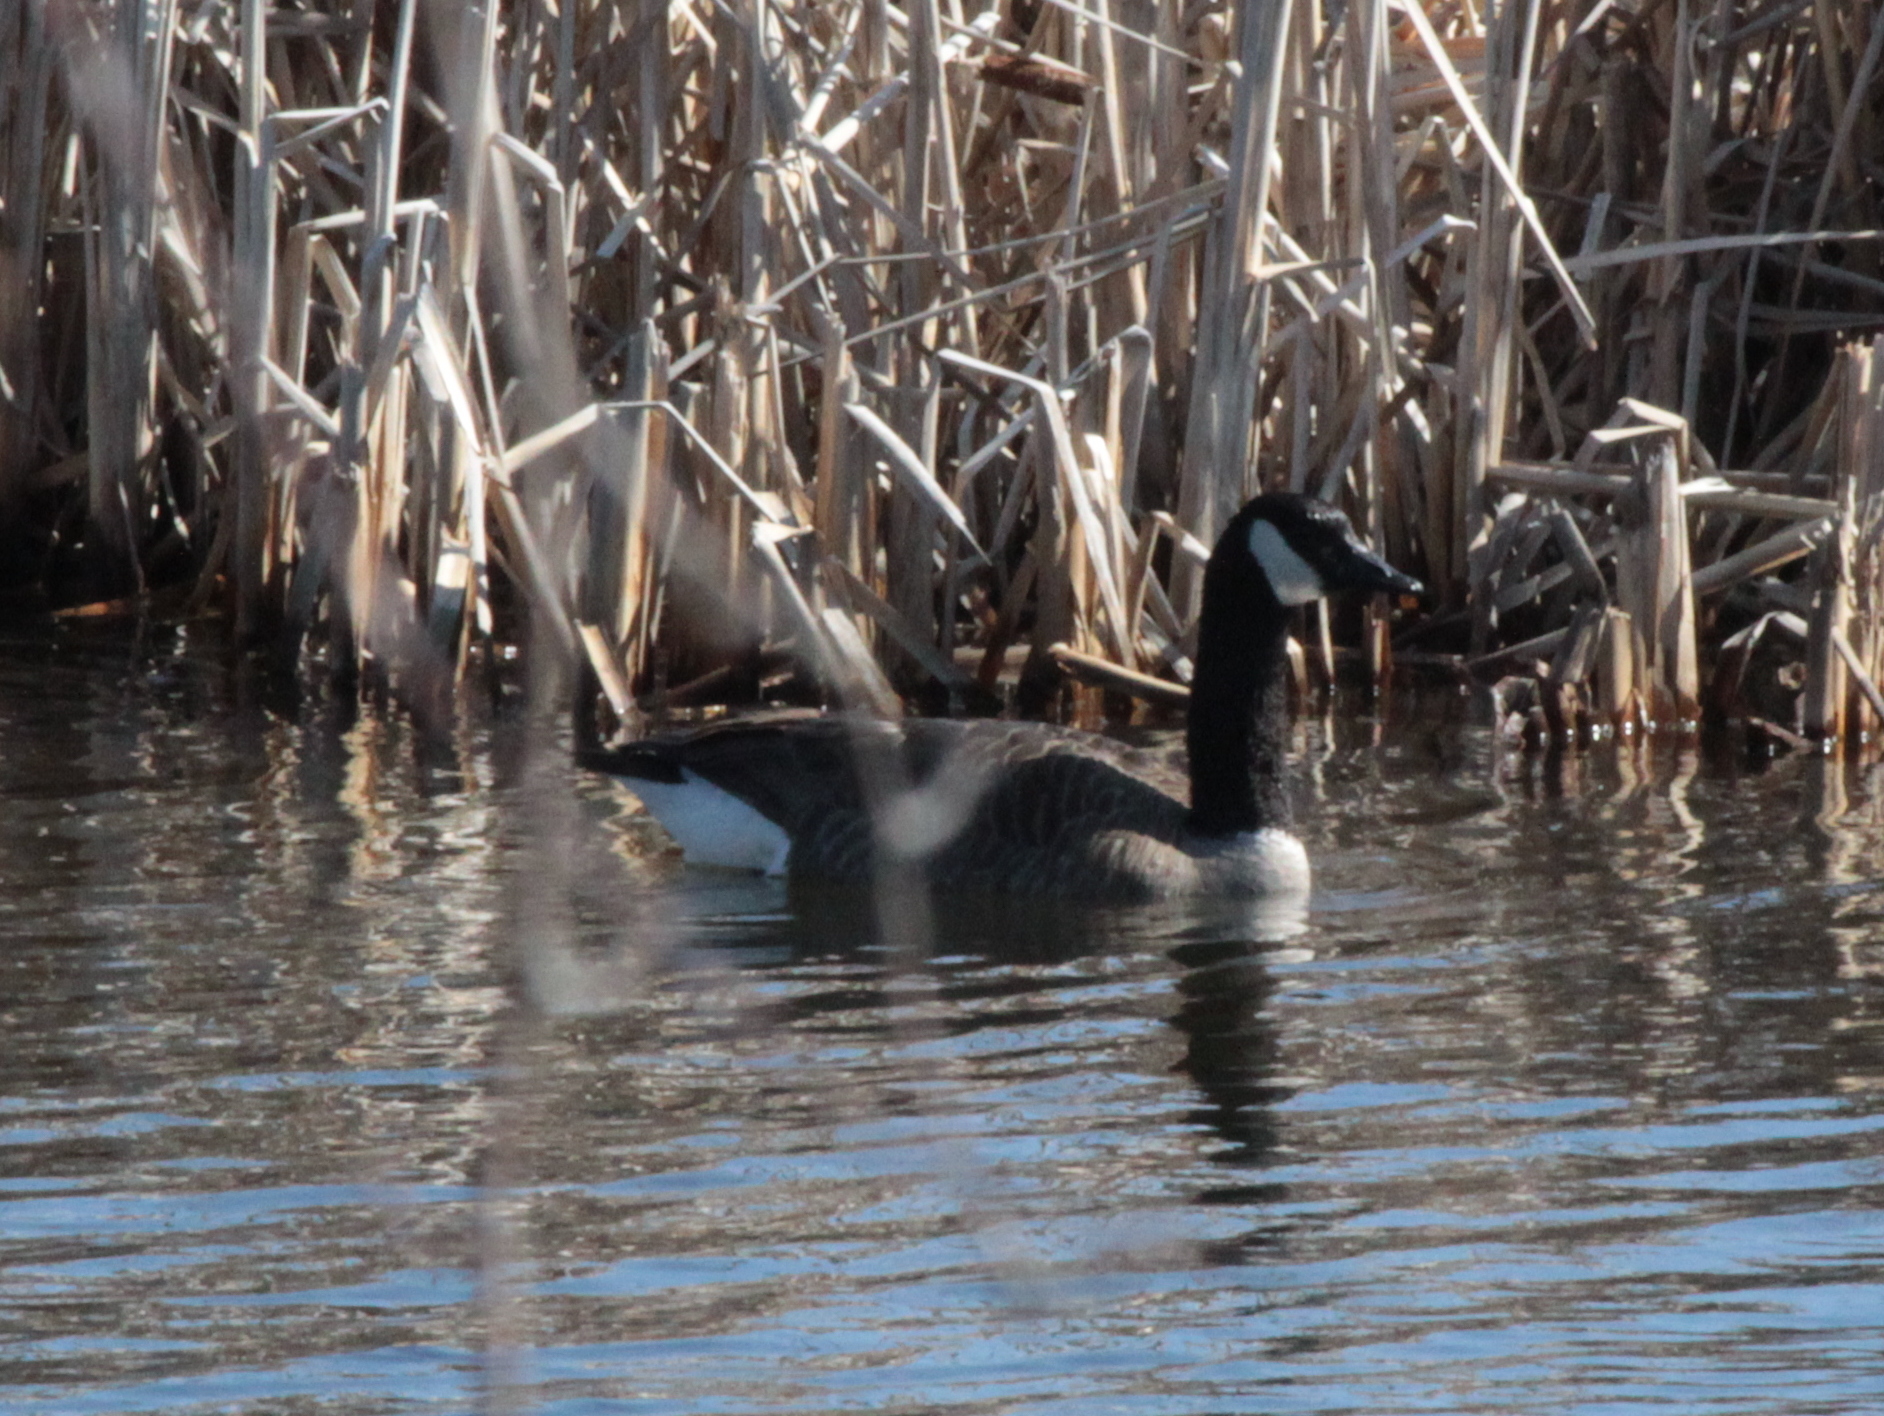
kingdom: Animalia
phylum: Chordata
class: Aves
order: Anseriformes
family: Anatidae
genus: Branta
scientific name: Branta canadensis
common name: Canada goose
